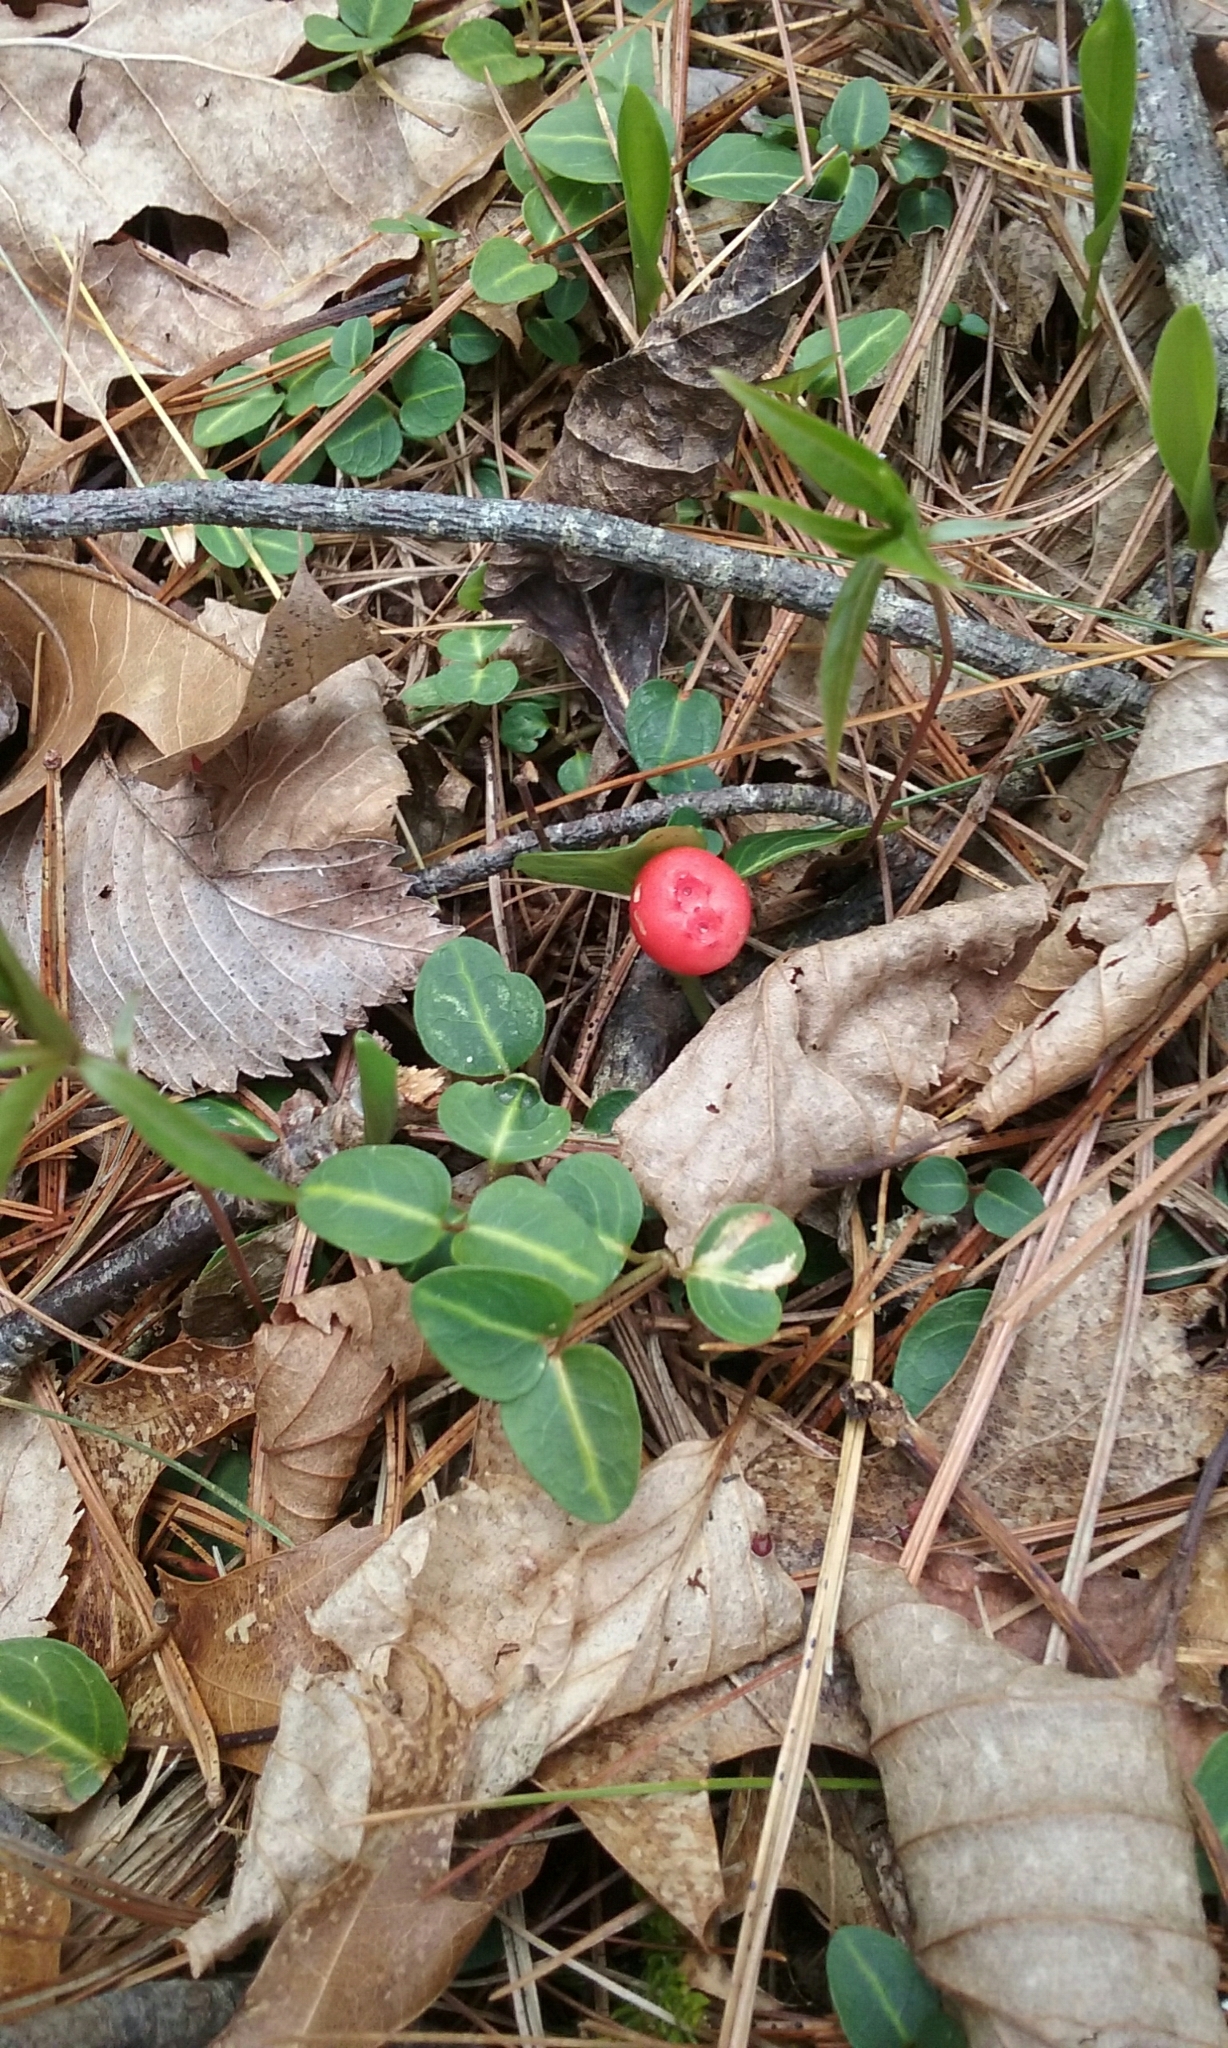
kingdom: Plantae
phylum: Tracheophyta
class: Magnoliopsida
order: Gentianales
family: Rubiaceae
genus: Mitchella
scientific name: Mitchella repens
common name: Partridge-berry
